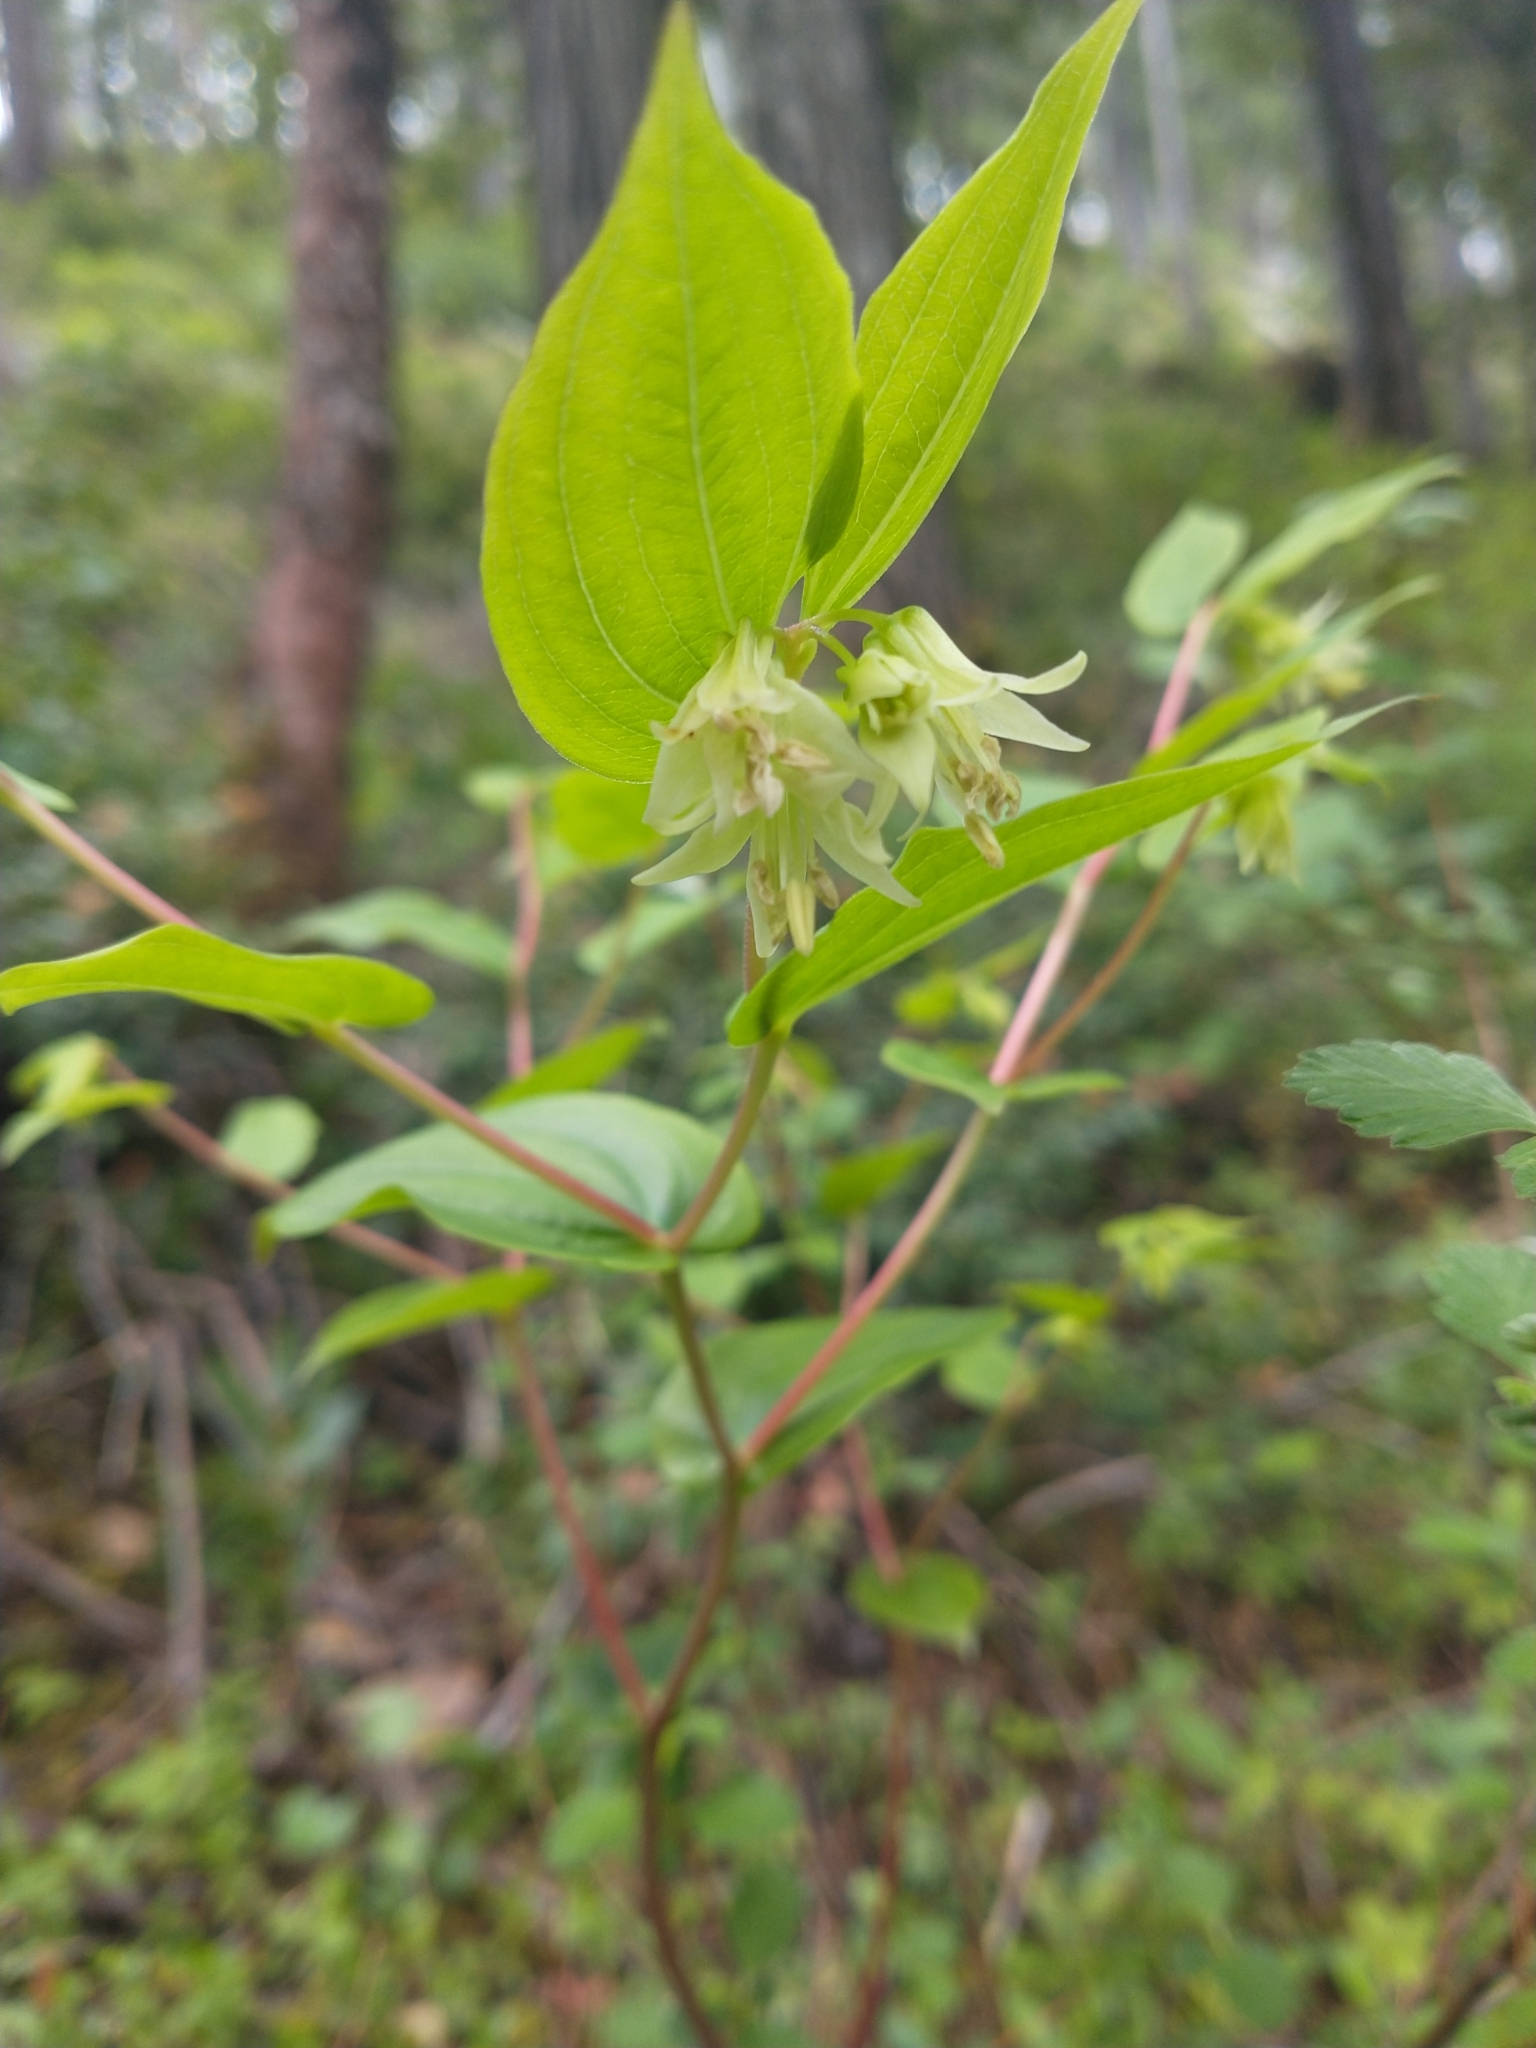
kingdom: Plantae
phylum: Tracheophyta
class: Liliopsida
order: Liliales
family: Liliaceae
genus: Prosartes
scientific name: Prosartes hookeri
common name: Fairy-bells
